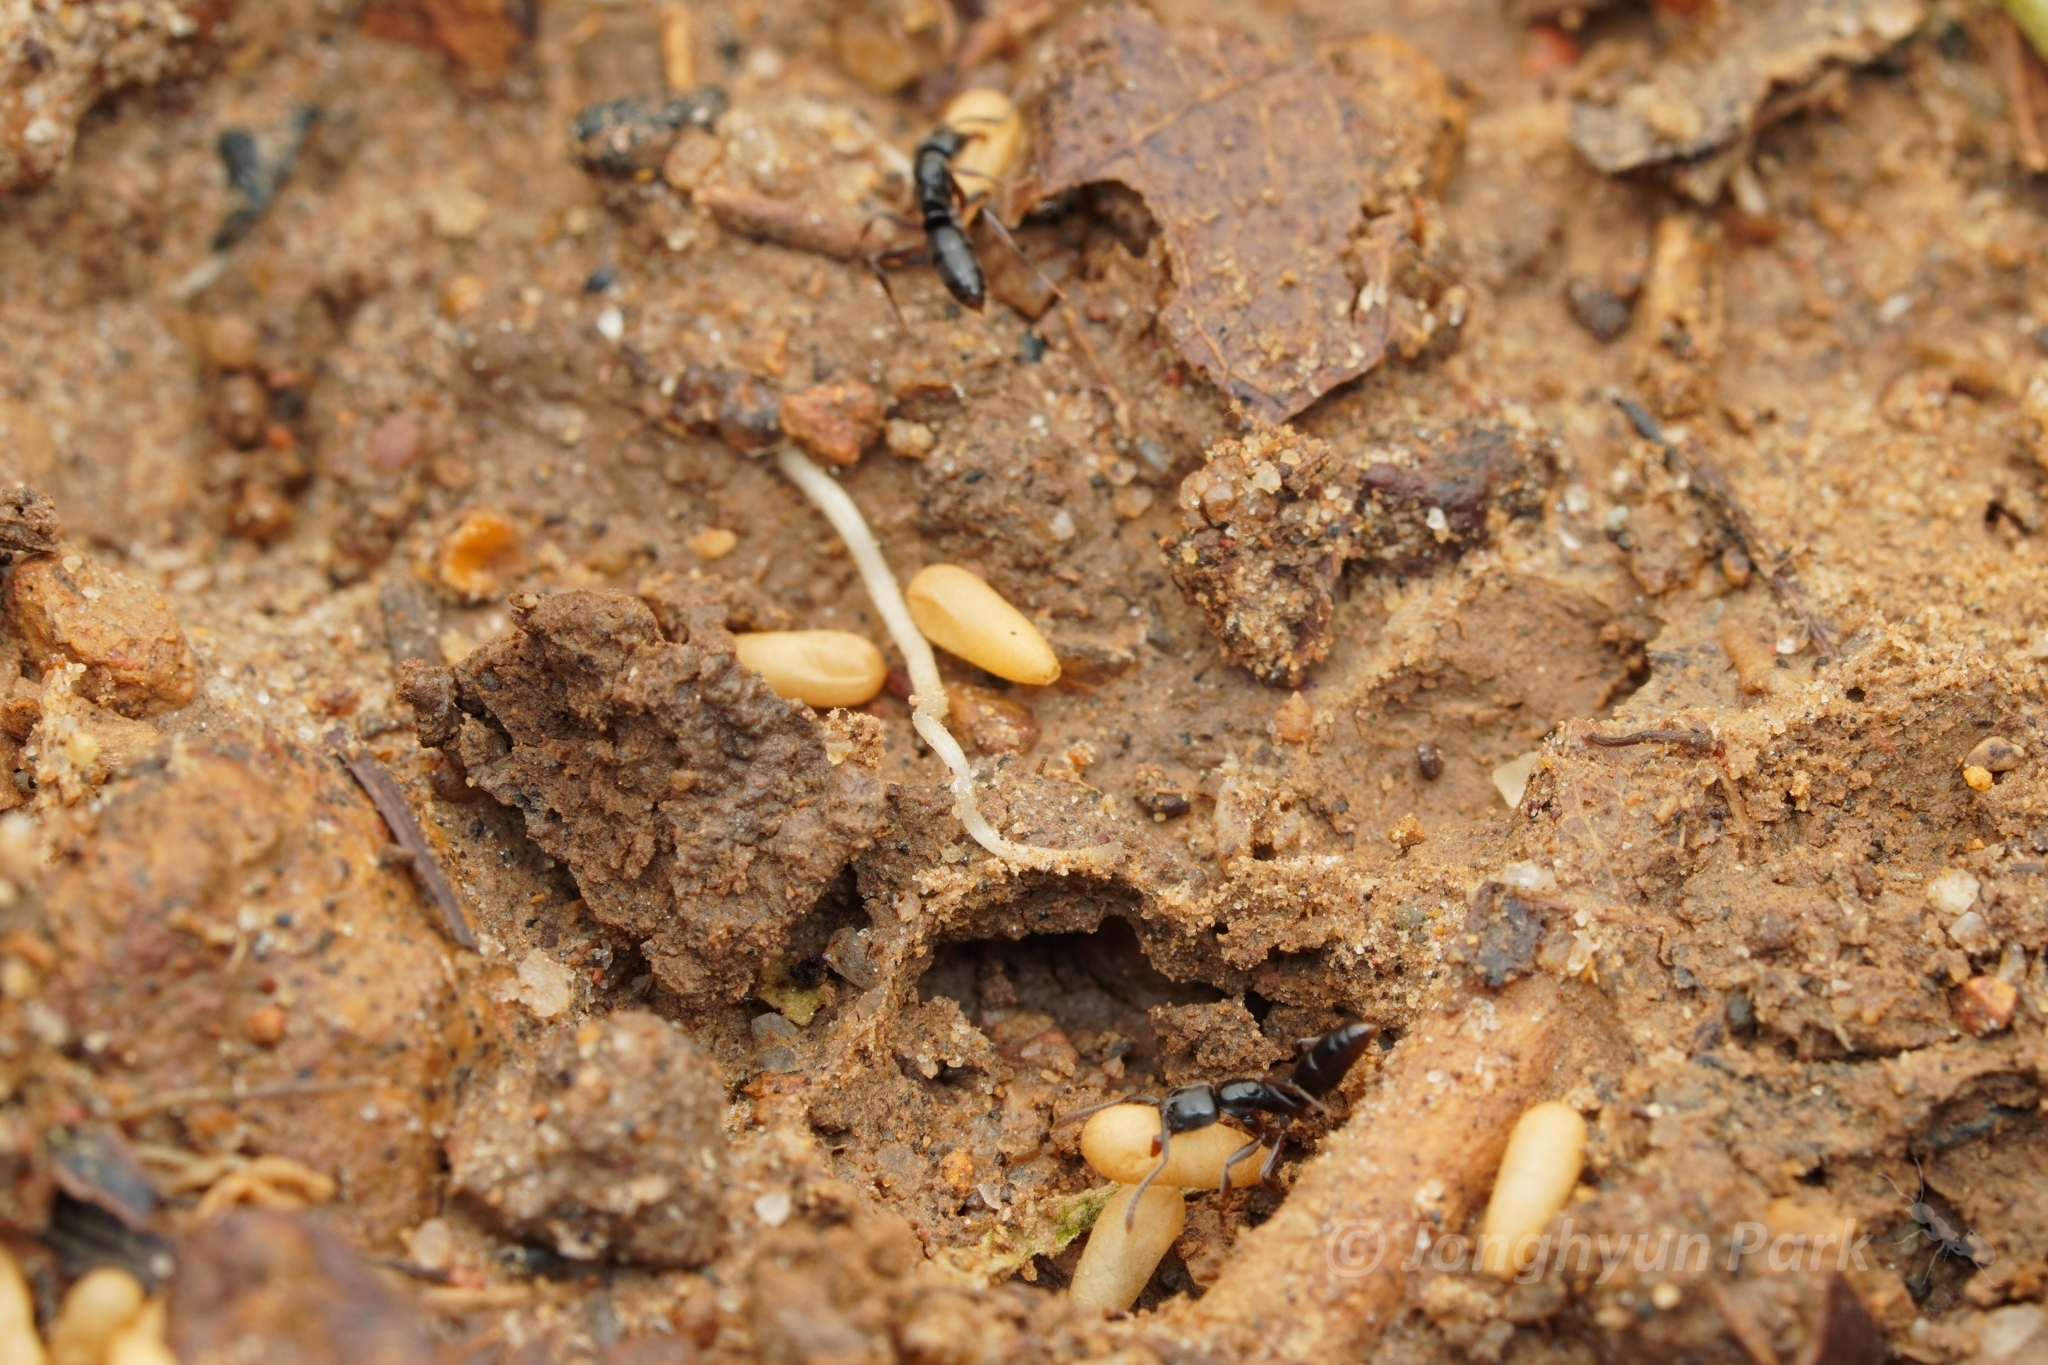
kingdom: Animalia
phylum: Arthropoda
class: Insecta
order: Hymenoptera
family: Formicidae
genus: Brachyponera
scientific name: Brachyponera luteipes
